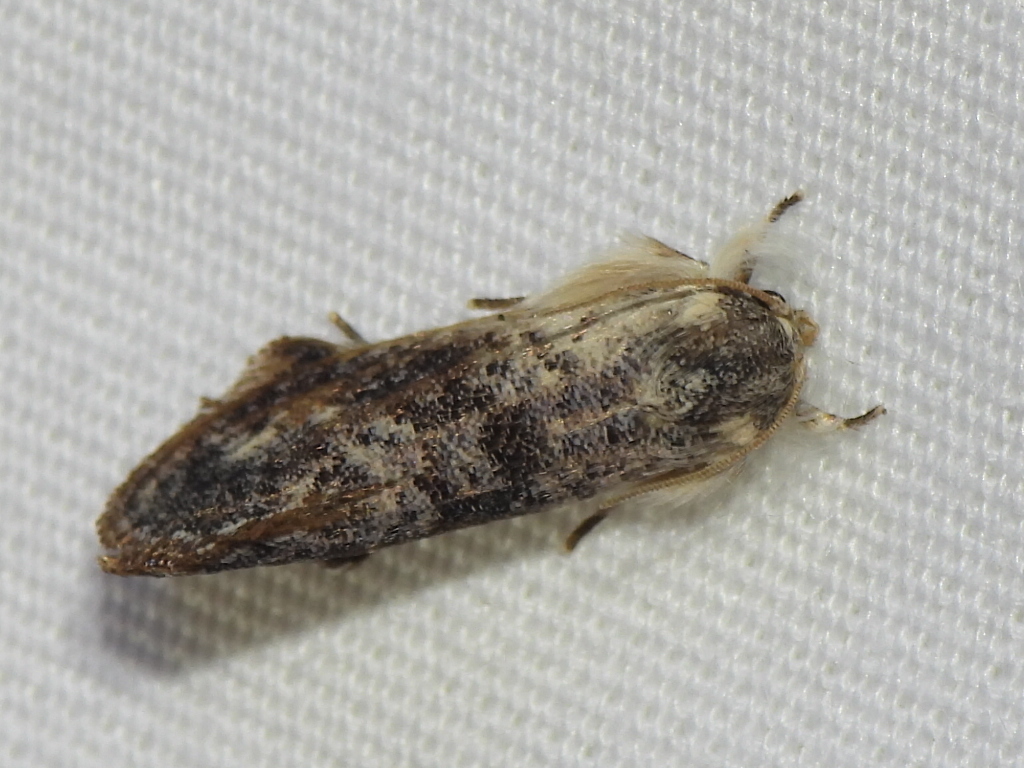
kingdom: Animalia
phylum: Arthropoda
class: Insecta
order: Lepidoptera
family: Tineidae
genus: Acrolophus
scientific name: Acrolophus mycetophagus
